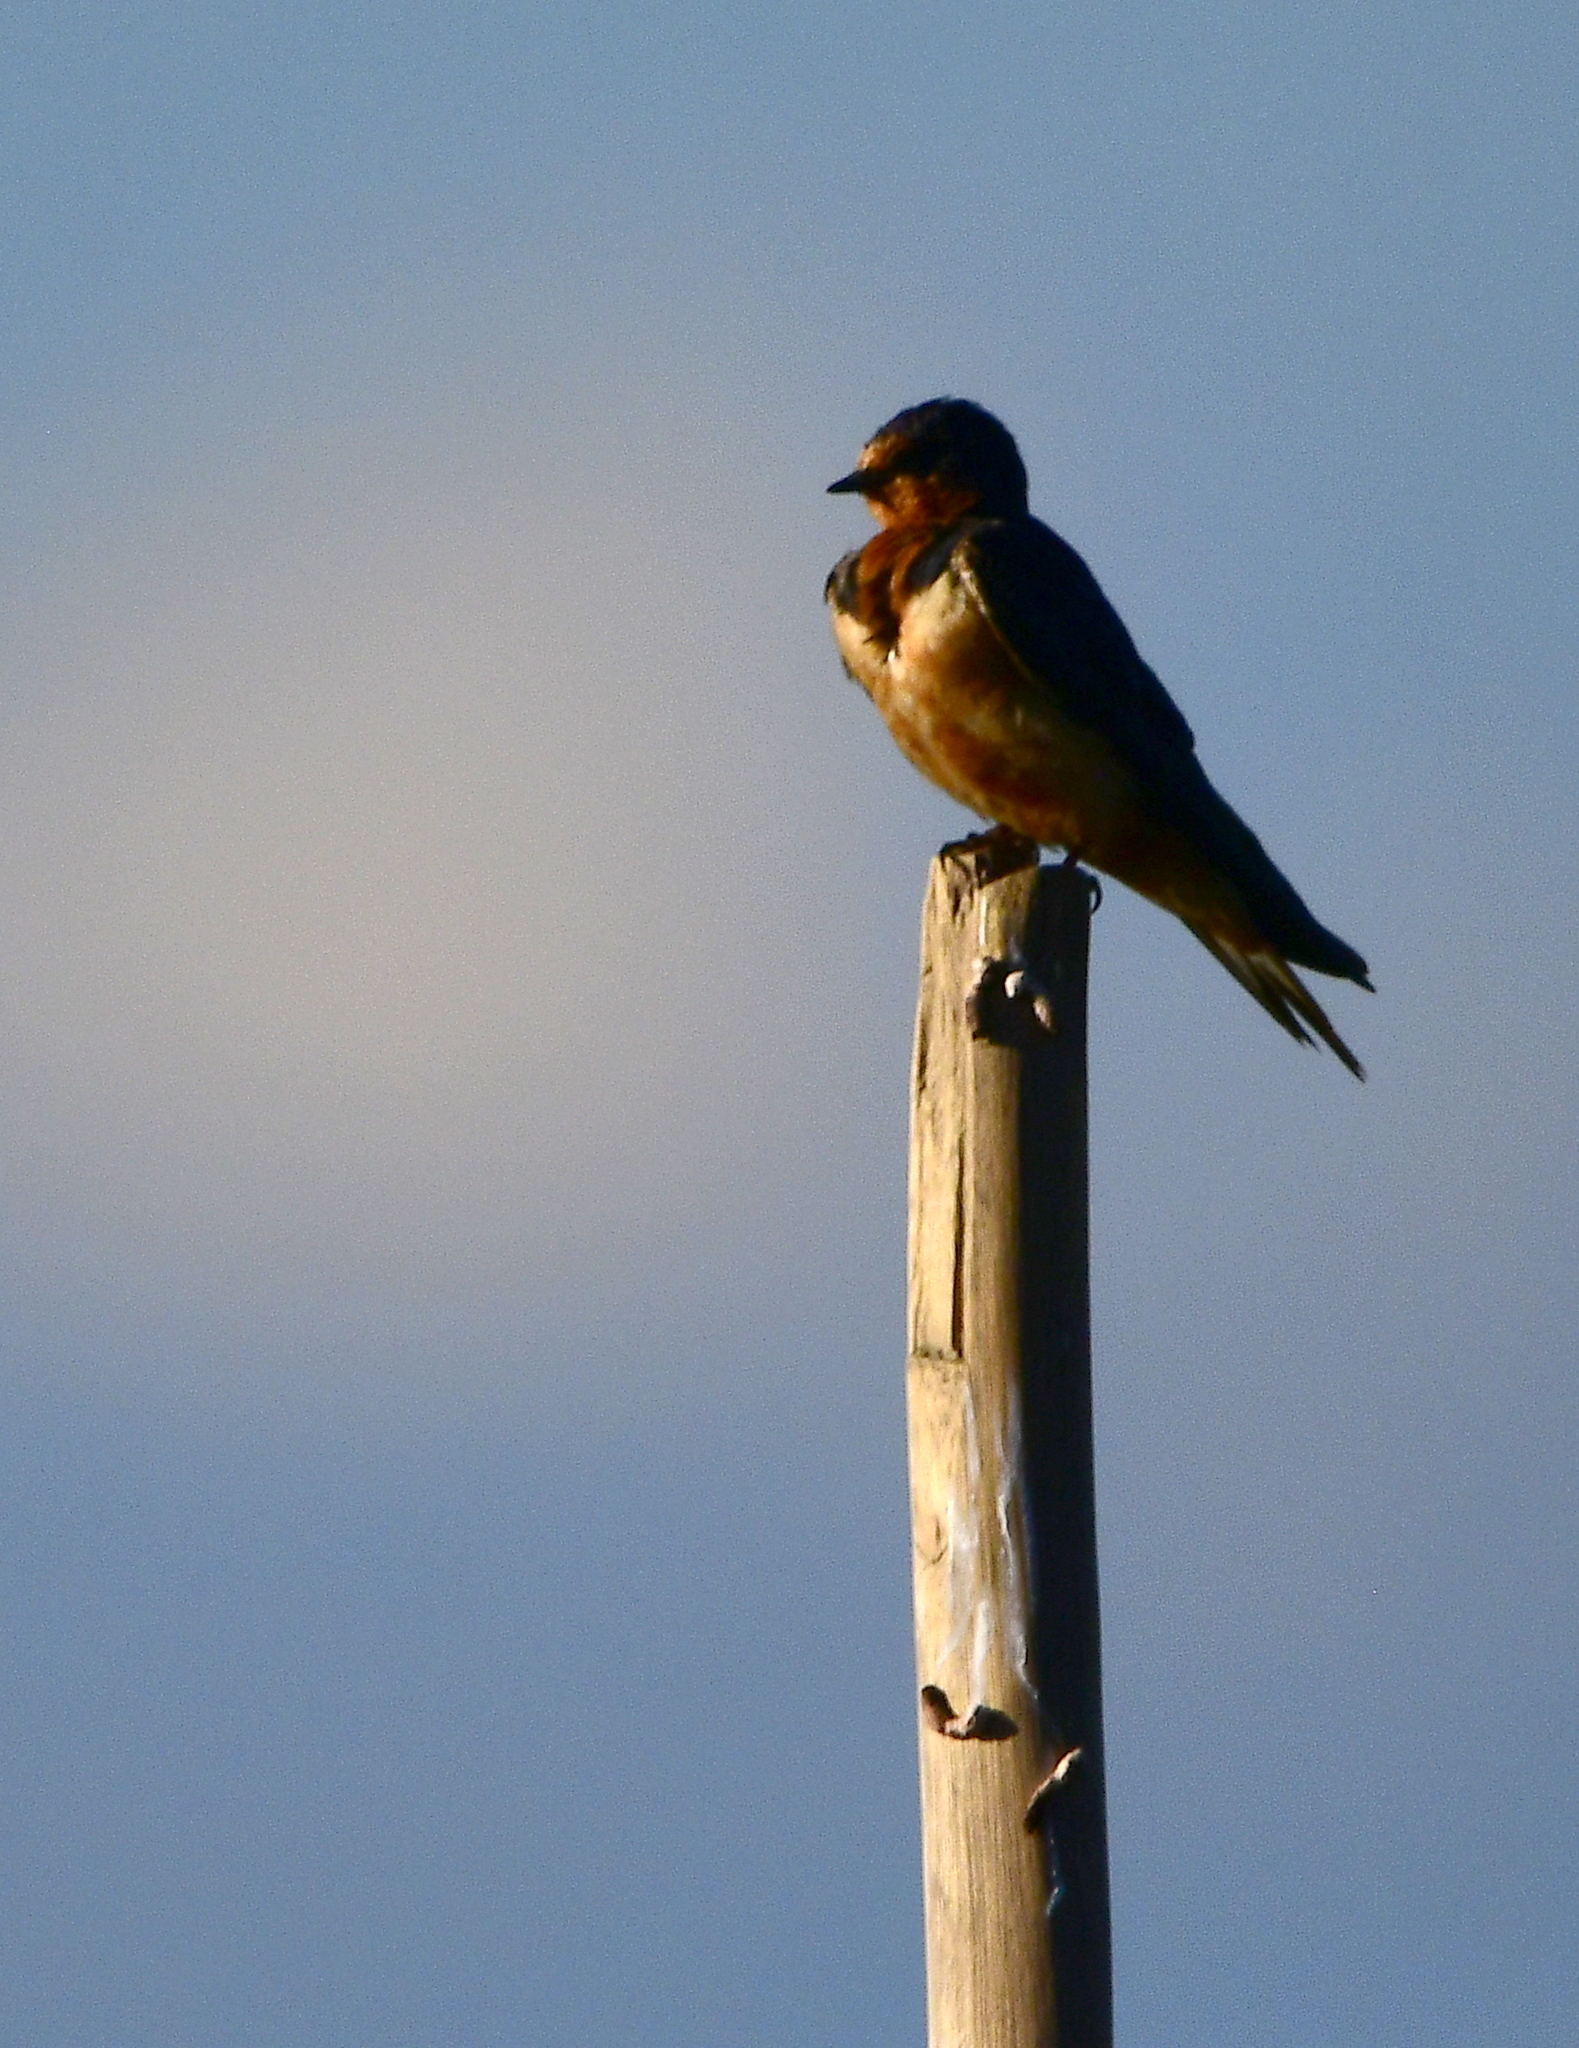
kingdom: Animalia
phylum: Chordata
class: Aves
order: Passeriformes
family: Hirundinidae
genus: Hirundo
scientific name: Hirundo rustica
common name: Barn swallow
